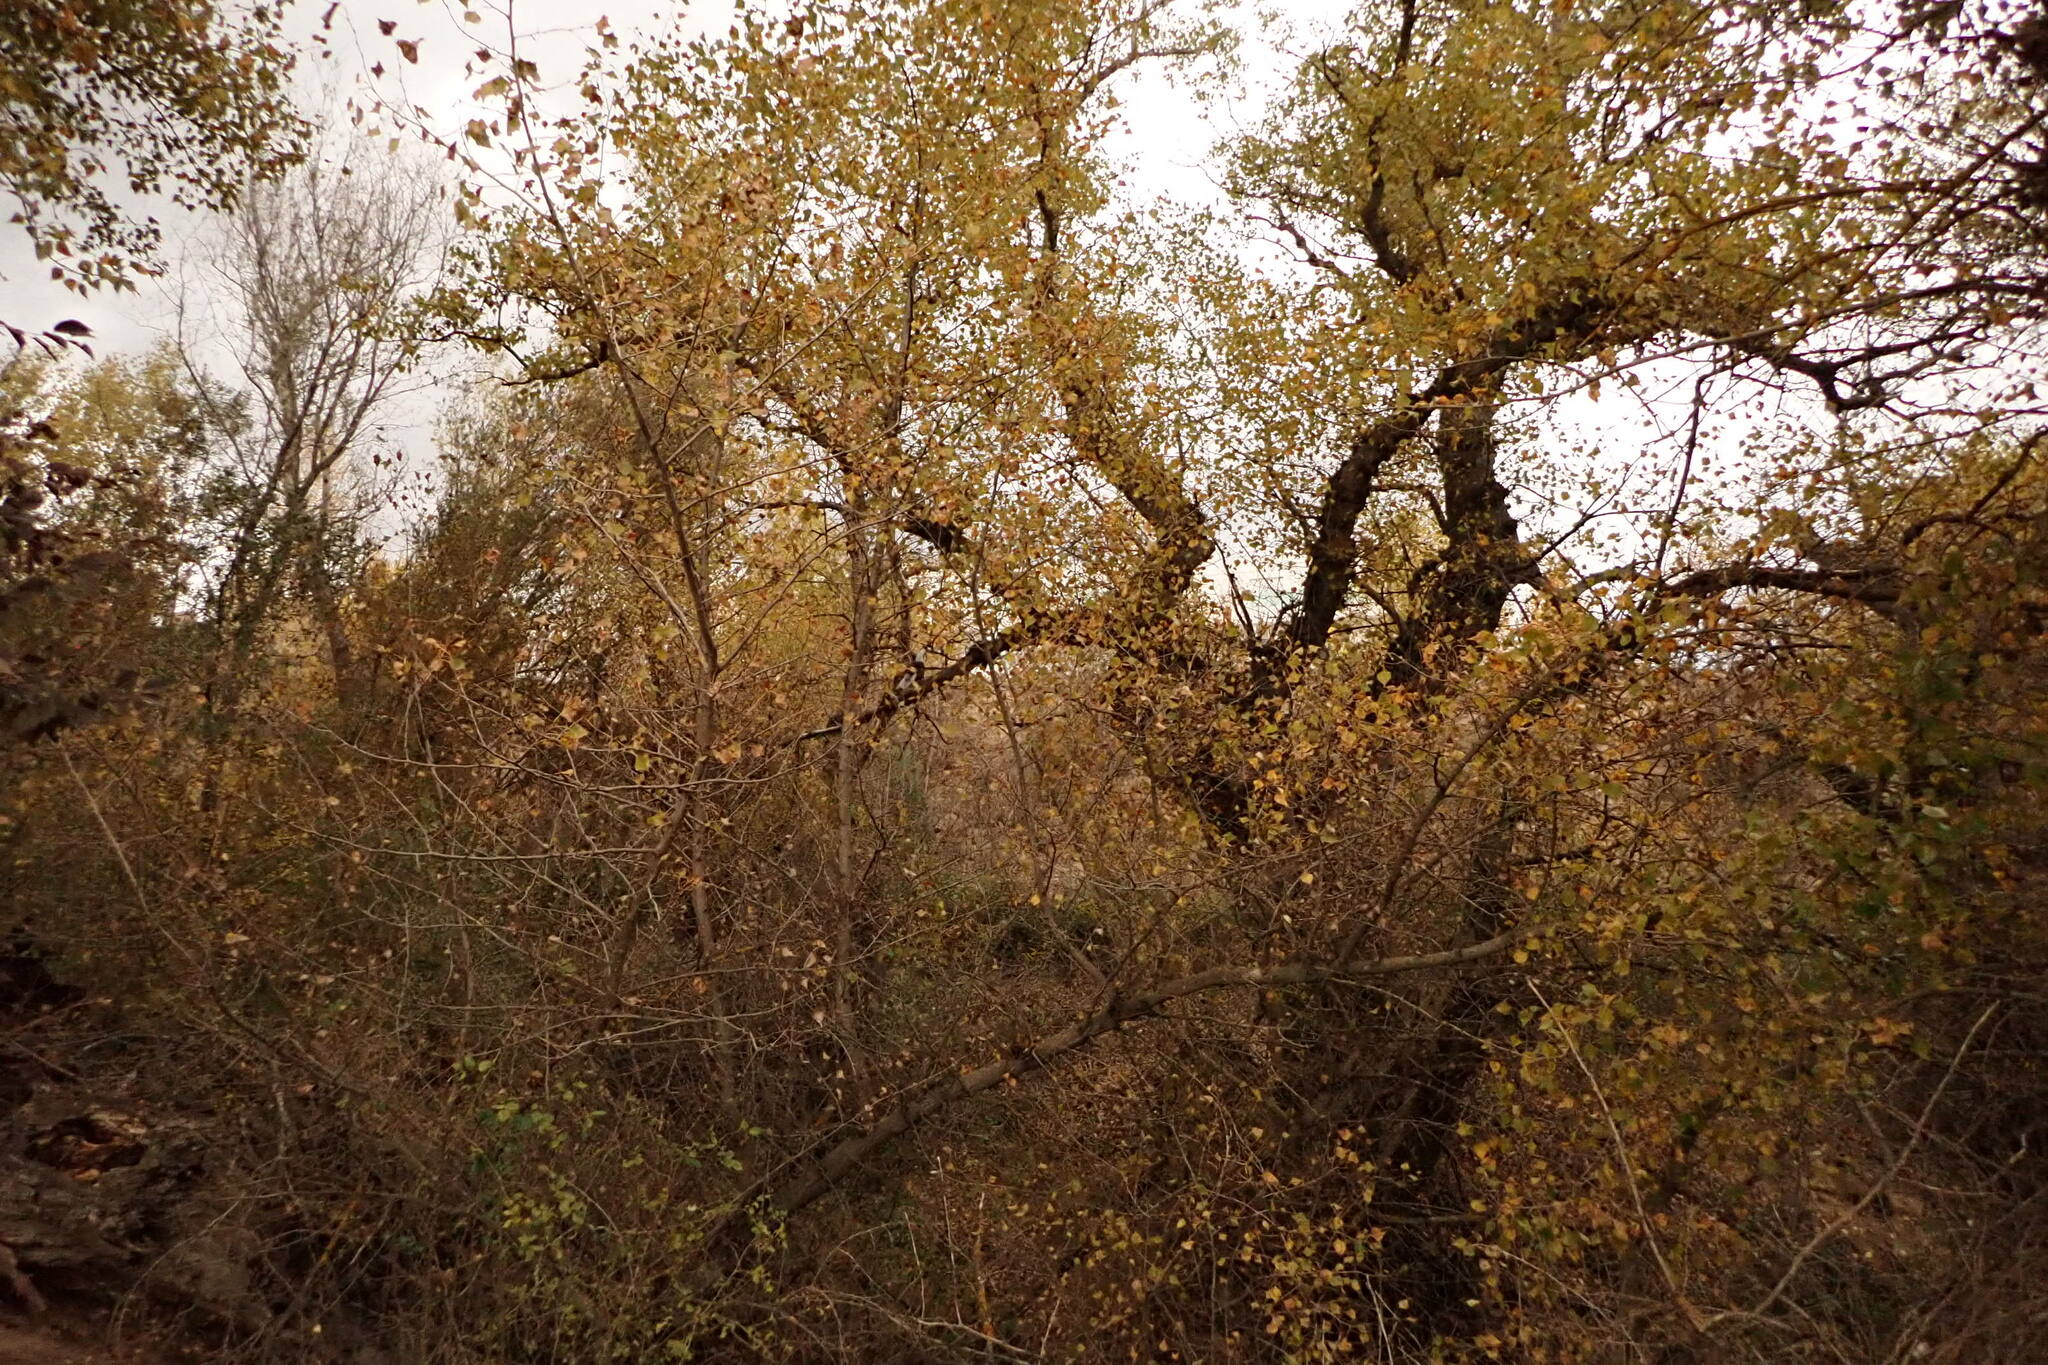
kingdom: Plantae
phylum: Tracheophyta
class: Magnoliopsida
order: Malpighiales
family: Salicaceae
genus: Populus
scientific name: Populus nigra
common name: Black poplar
